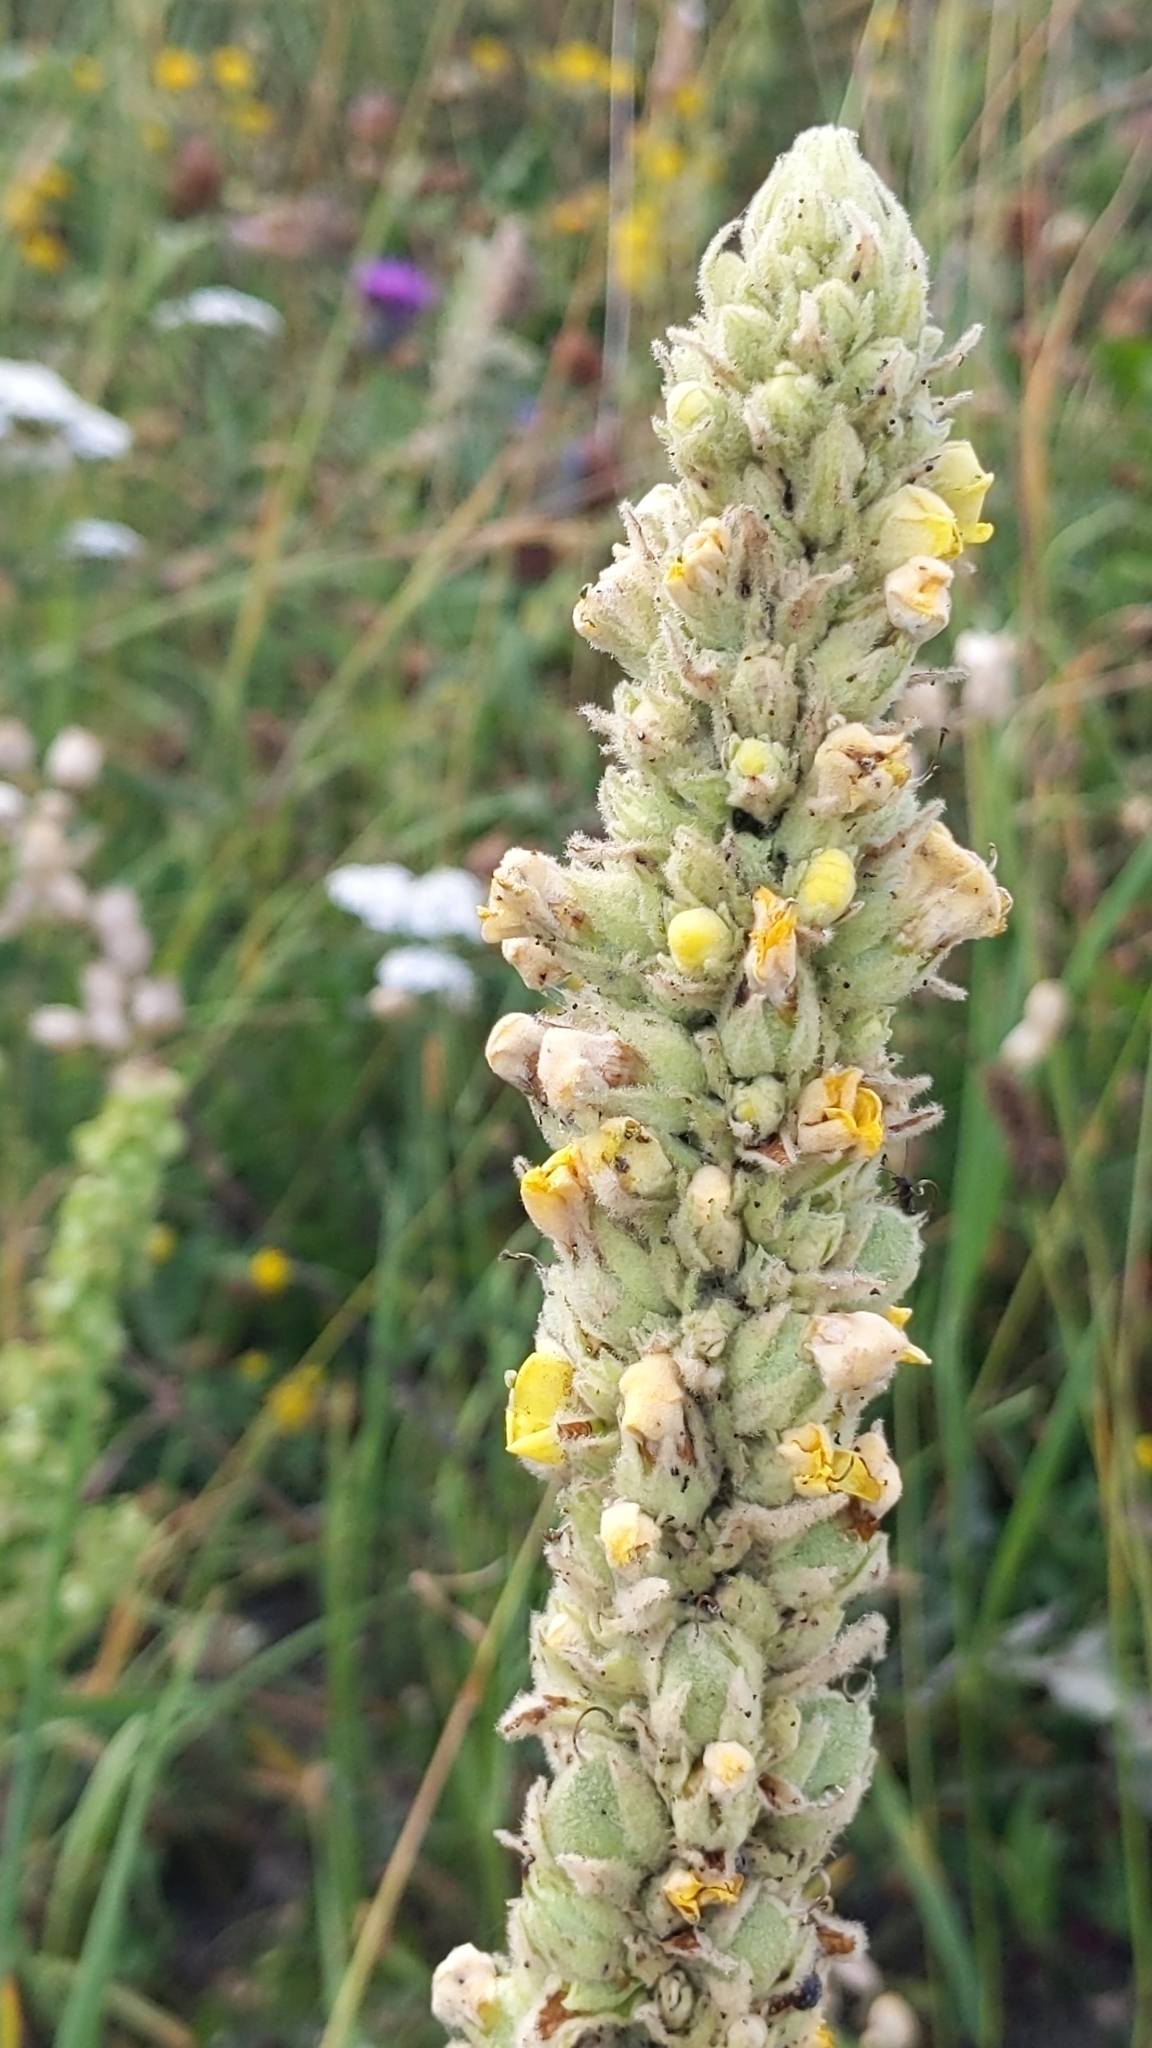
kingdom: Plantae
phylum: Tracheophyta
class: Magnoliopsida
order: Lamiales
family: Scrophulariaceae
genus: Verbascum
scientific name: Verbascum thapsus
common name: Common mullein
